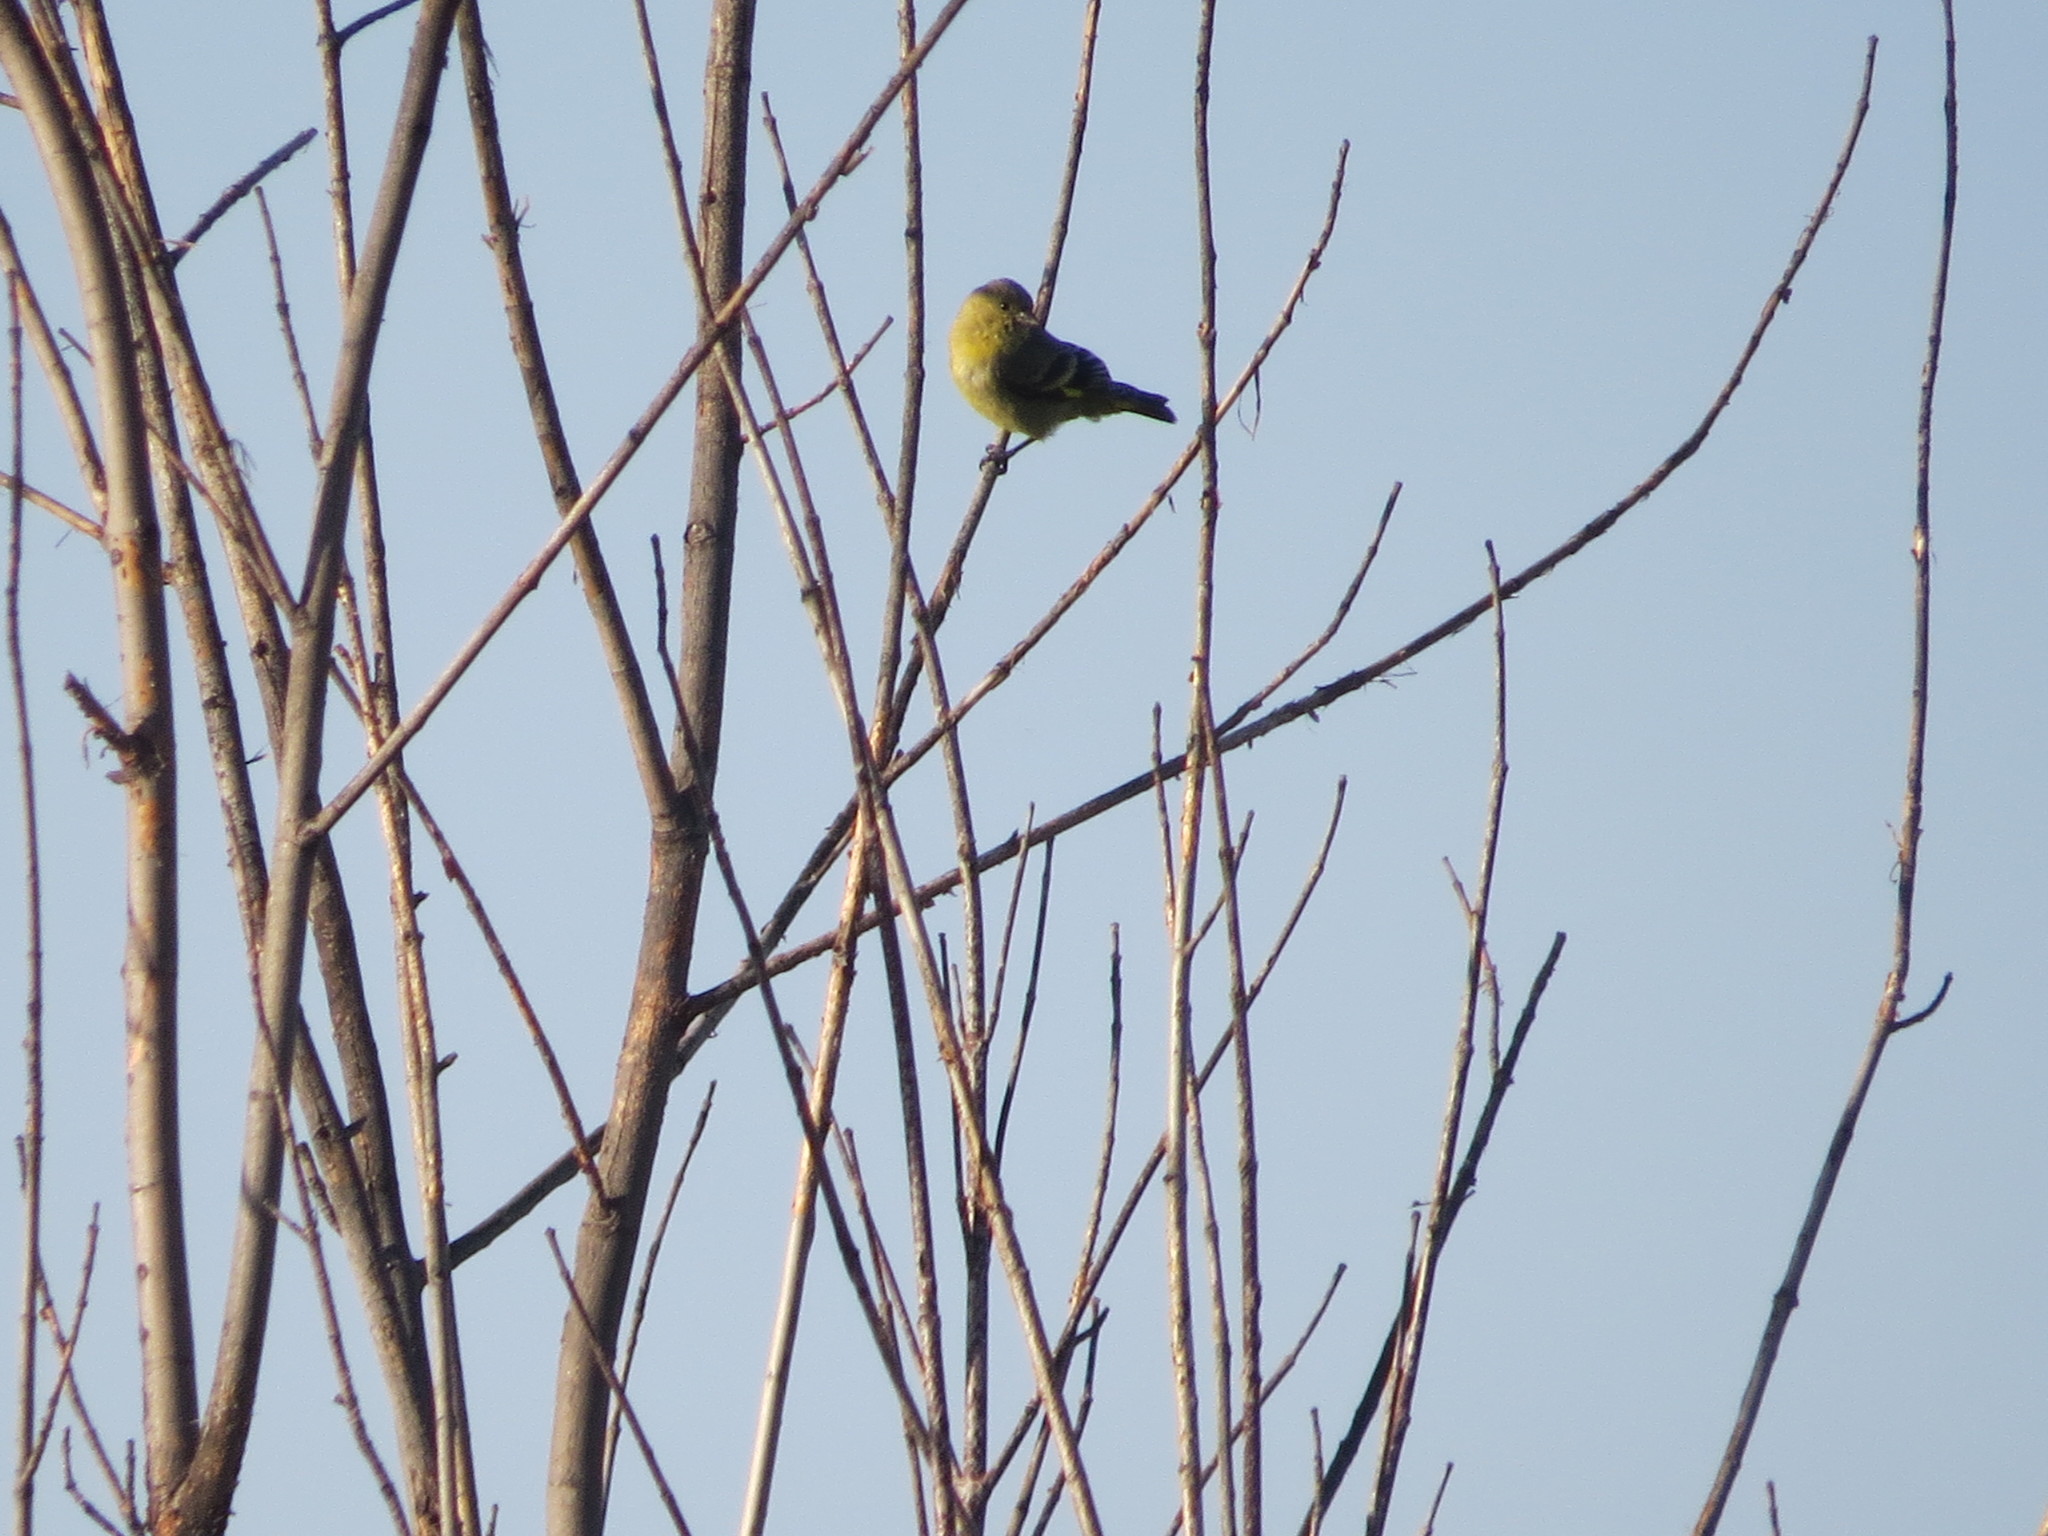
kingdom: Animalia
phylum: Chordata
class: Aves
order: Passeriformes
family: Fringillidae
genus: Spinus
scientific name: Spinus magellanicus
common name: Hooded siskin
